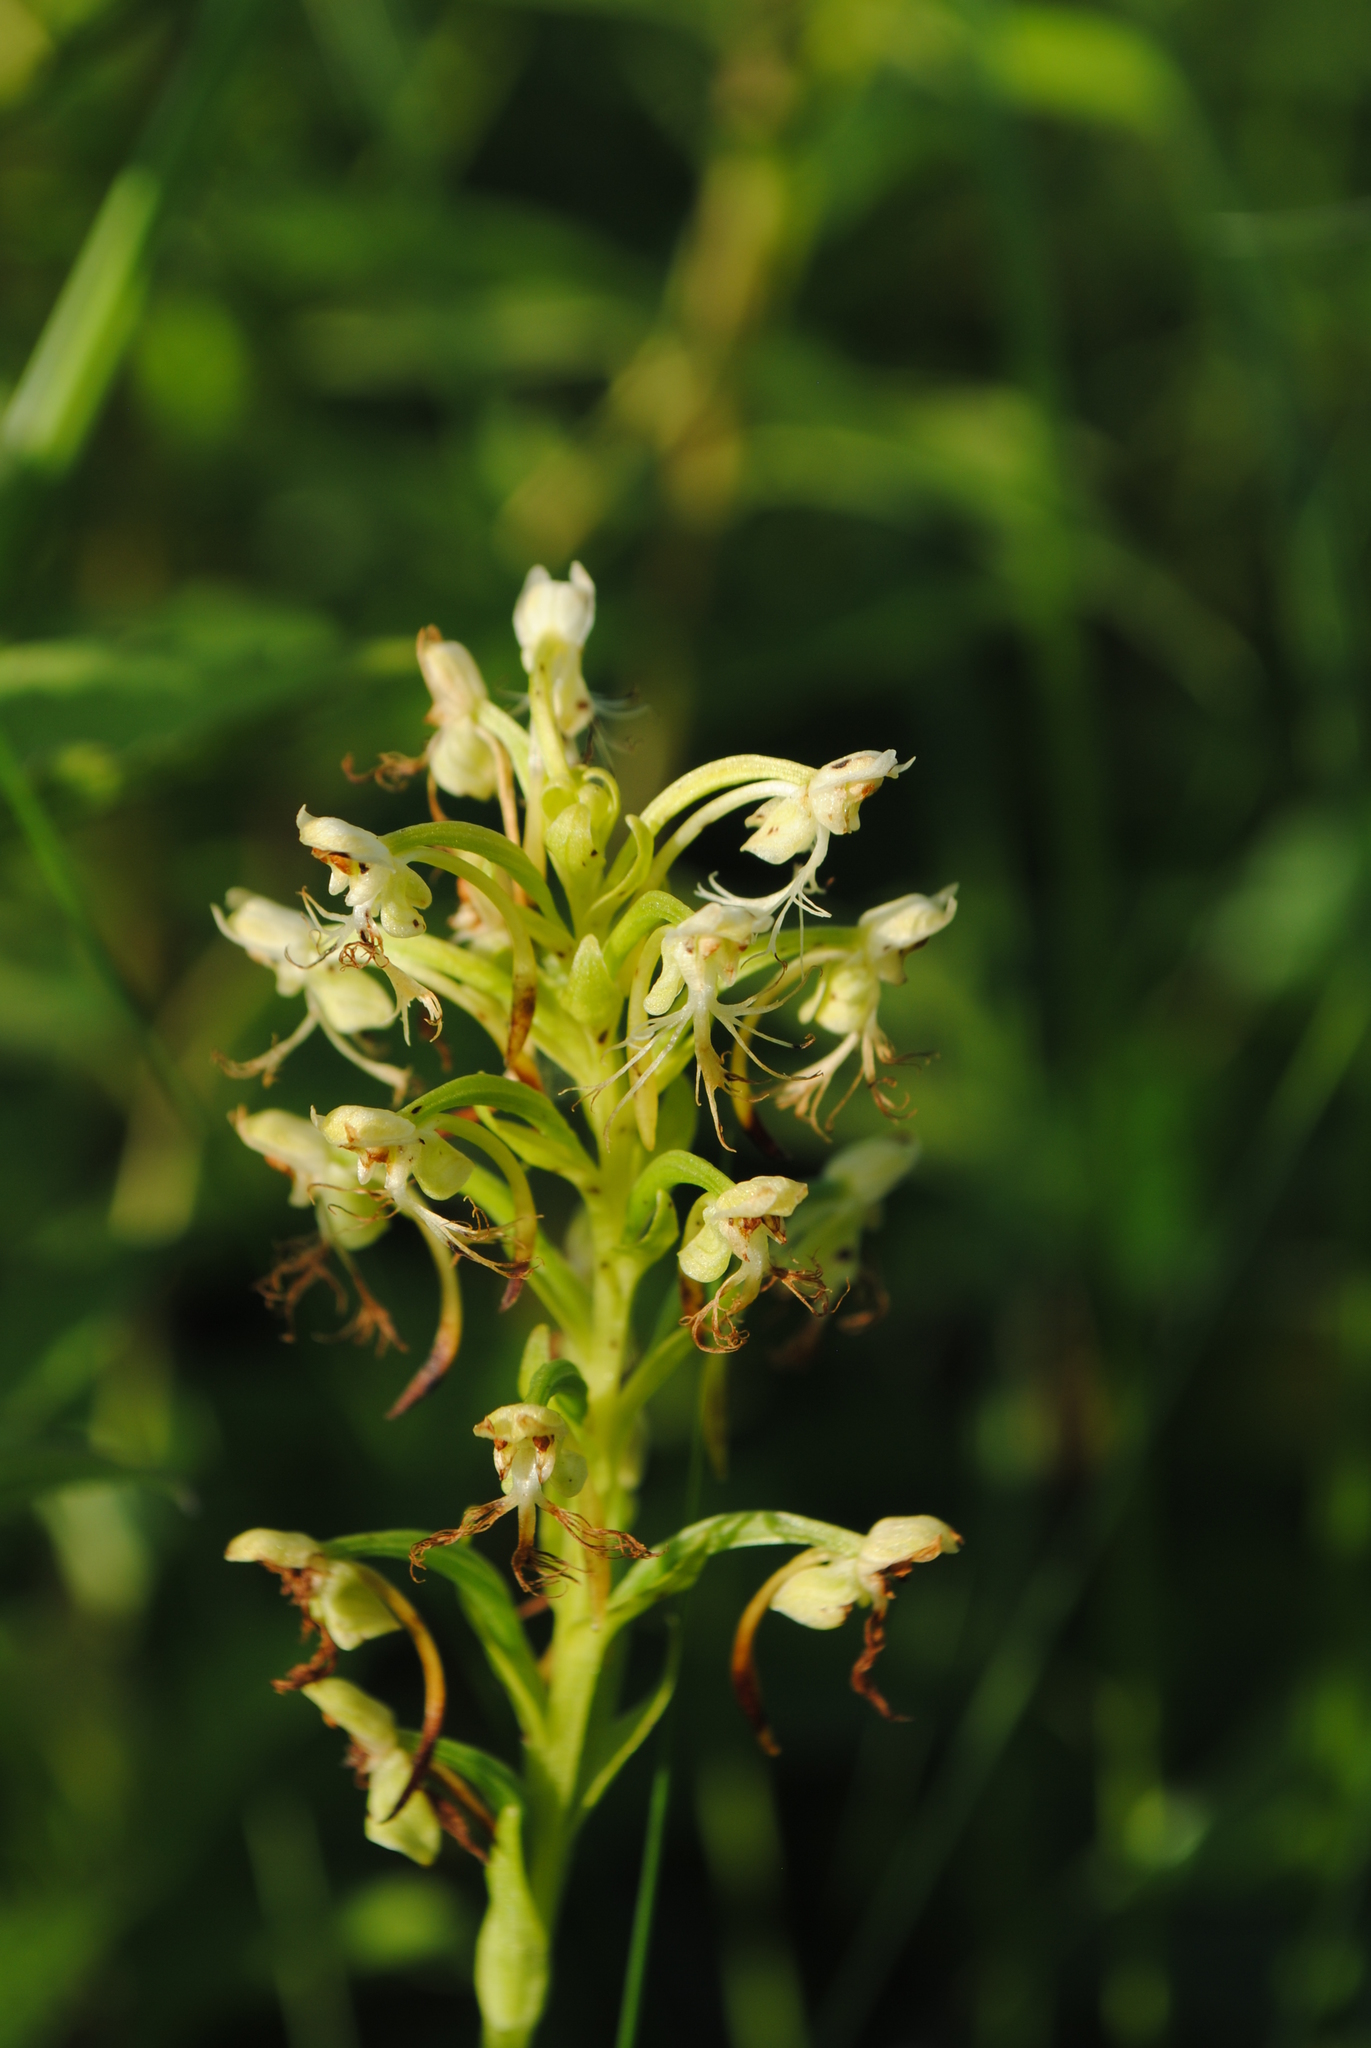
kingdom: Plantae
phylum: Tracheophyta
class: Liliopsida
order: Asparagales
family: Orchidaceae
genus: Platanthera
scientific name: Platanthera lacera
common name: Green fringed orchid
